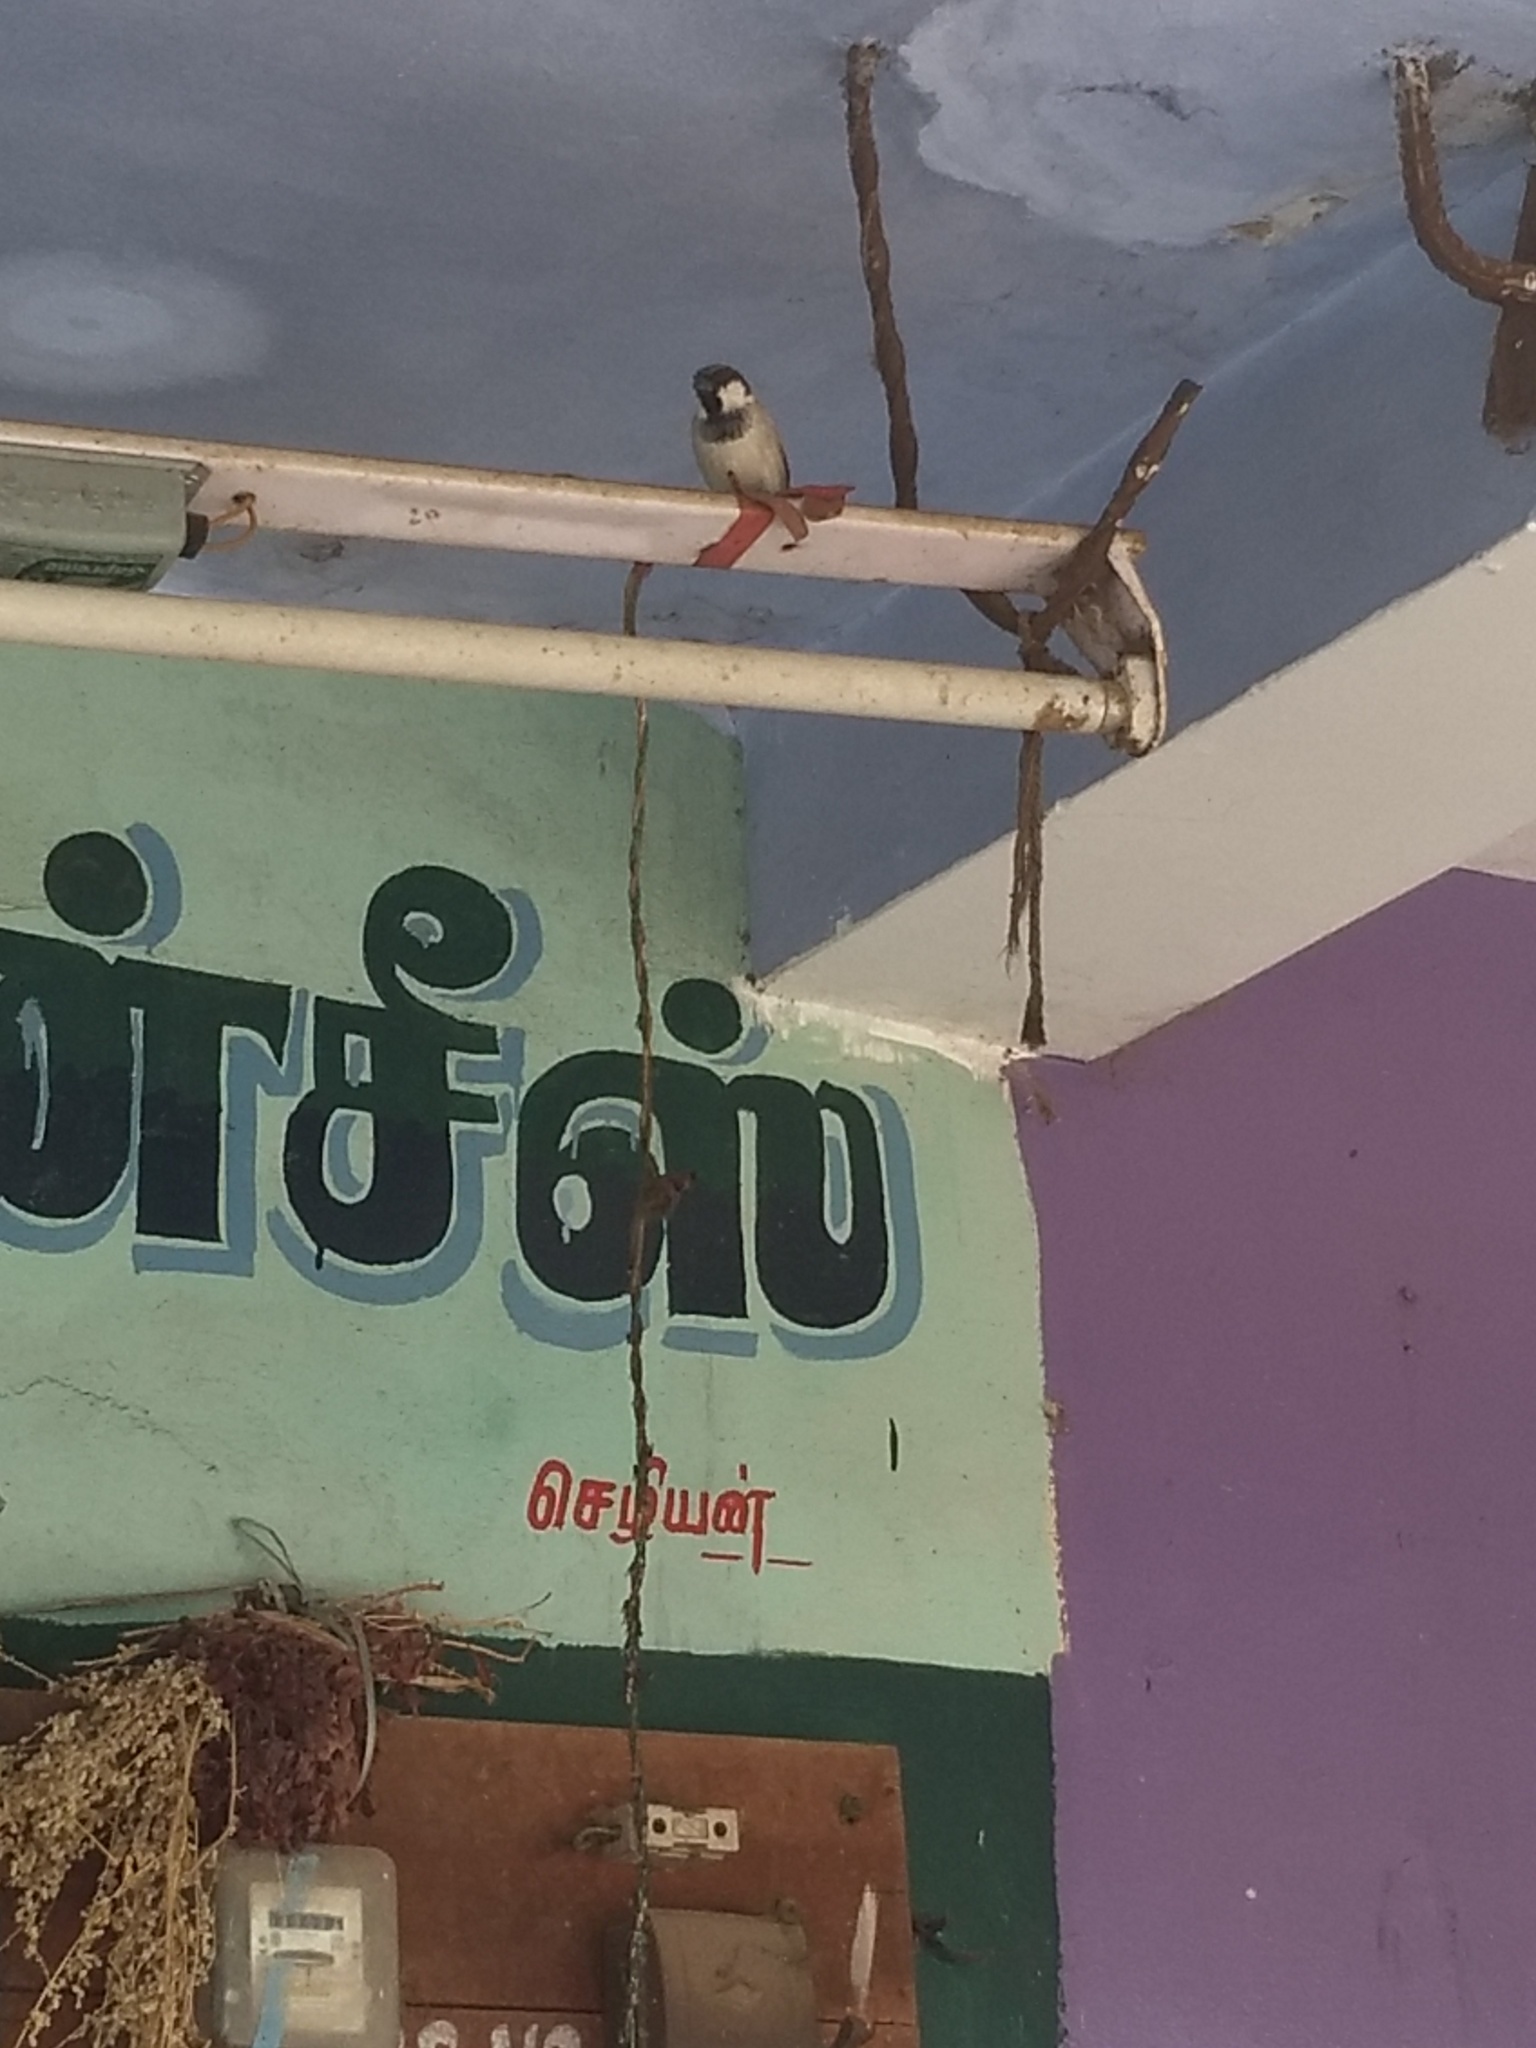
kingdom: Animalia
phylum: Chordata
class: Aves
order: Passeriformes
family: Passeridae
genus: Passer
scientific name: Passer domesticus
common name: House sparrow
